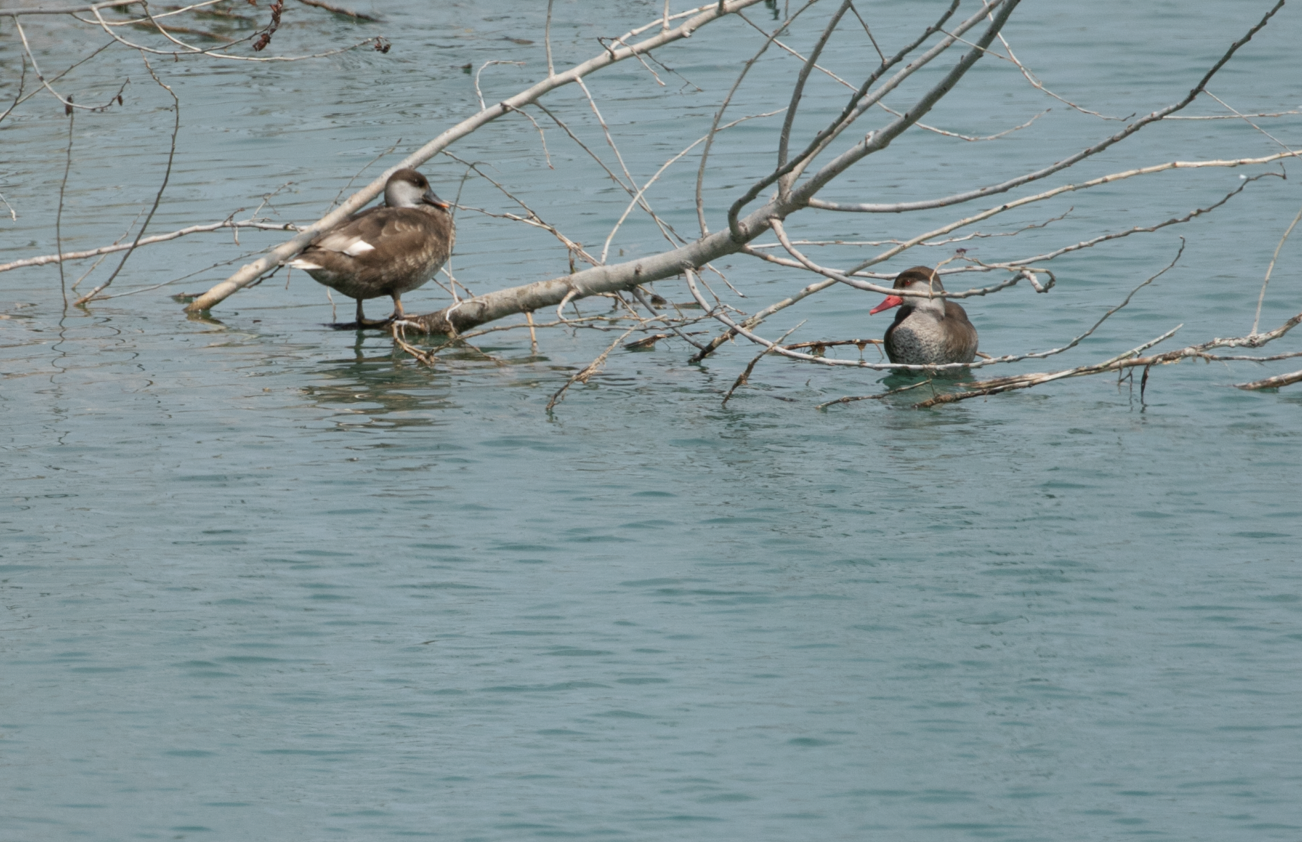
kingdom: Animalia
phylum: Chordata
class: Aves
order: Anseriformes
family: Anatidae
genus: Netta
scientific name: Netta rufina
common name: Red-crested pochard
